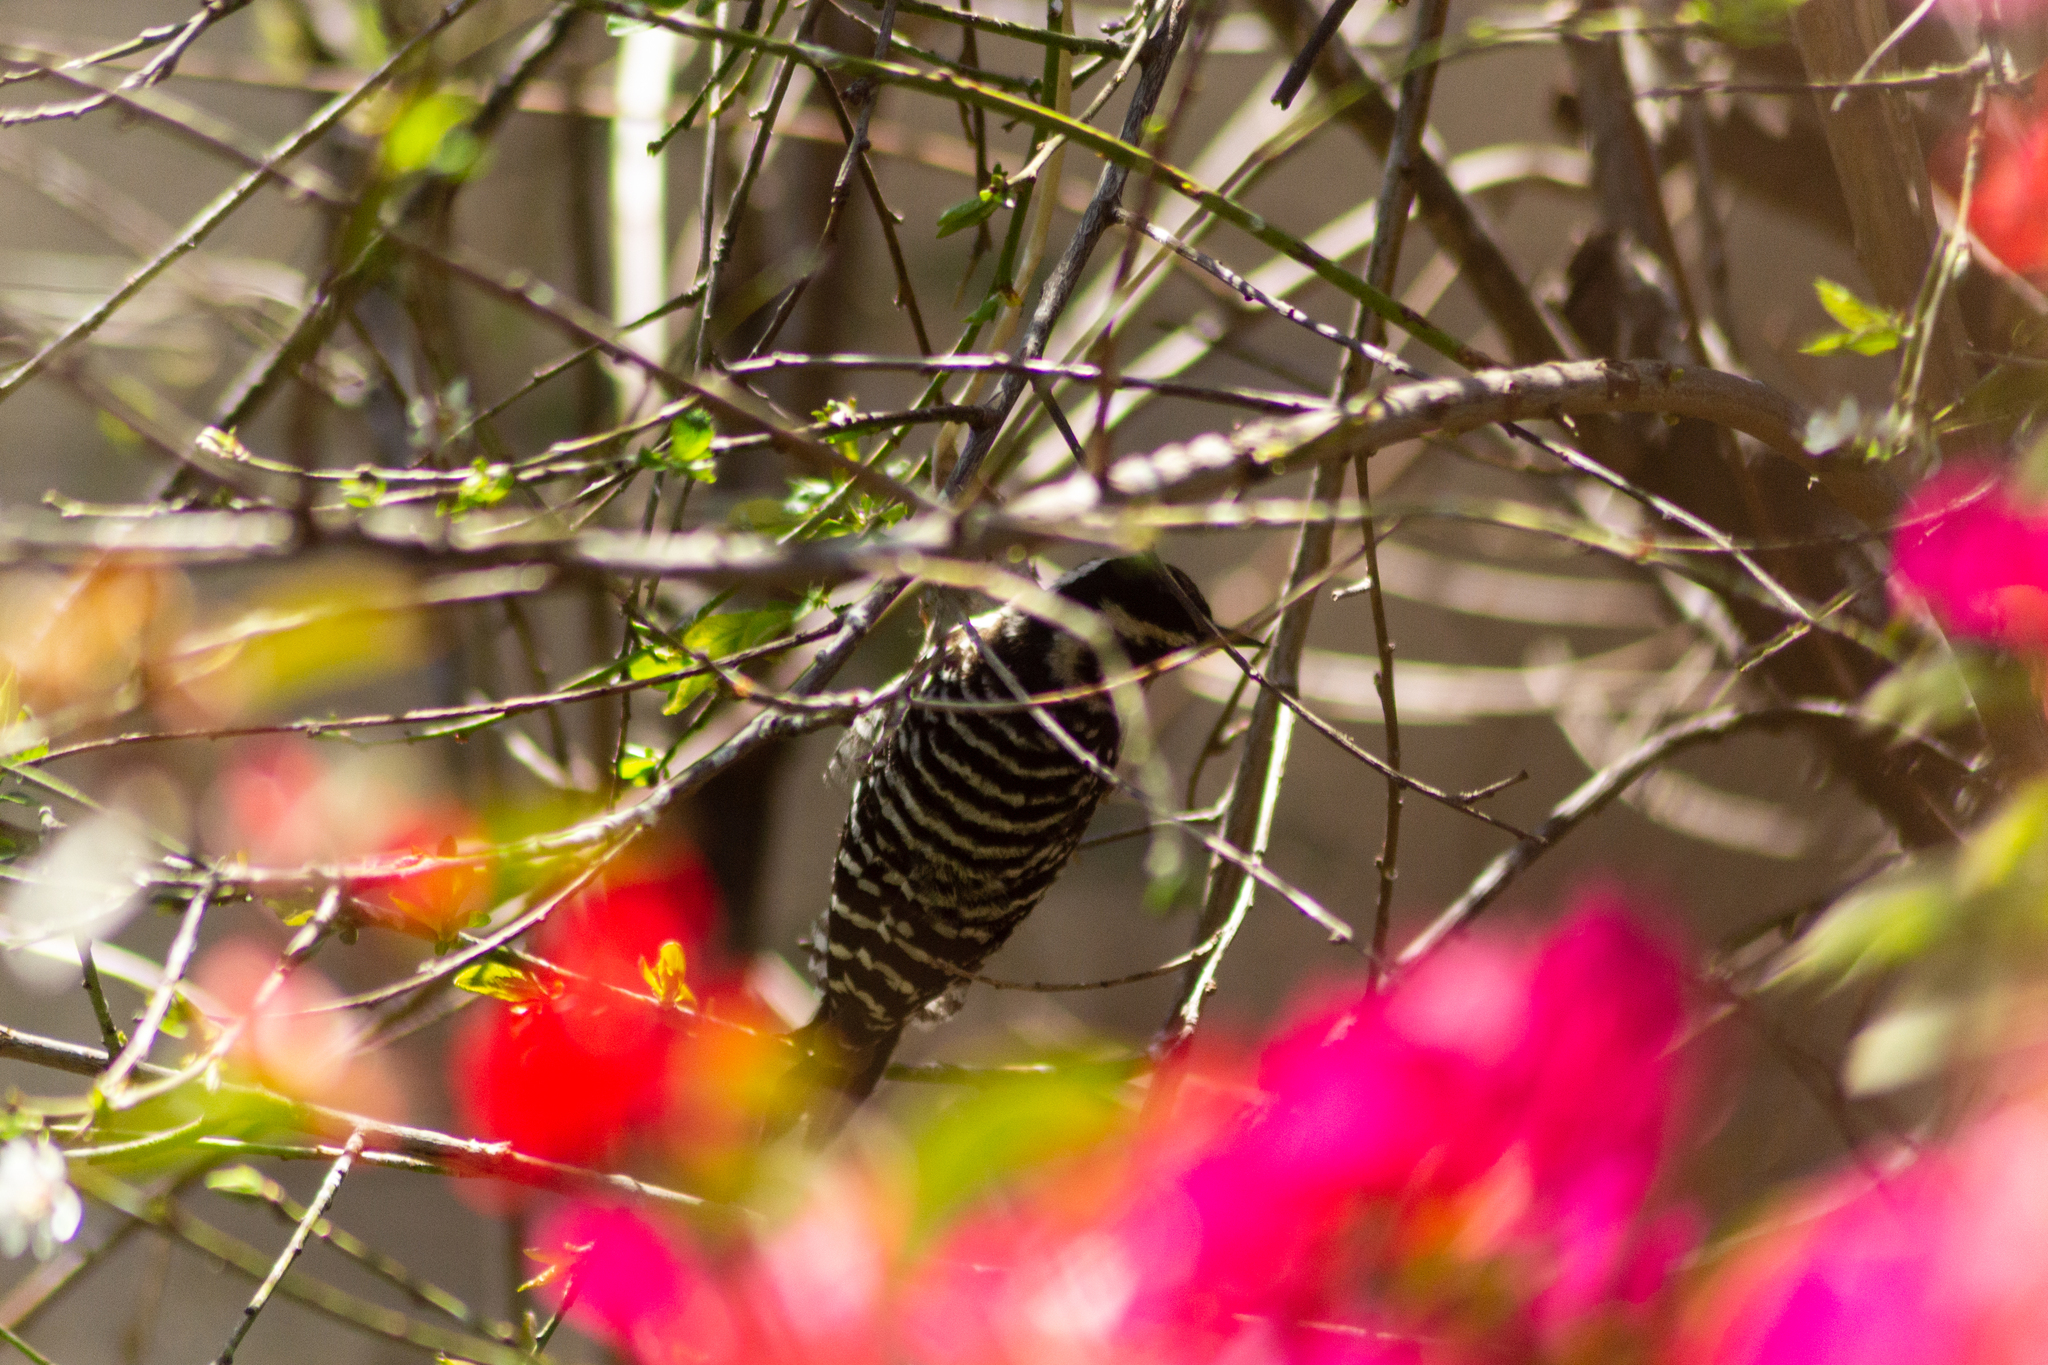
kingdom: Animalia
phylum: Chordata
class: Aves
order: Piciformes
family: Picidae
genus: Dryobates
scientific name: Dryobates scalaris
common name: Ladder-backed woodpecker
